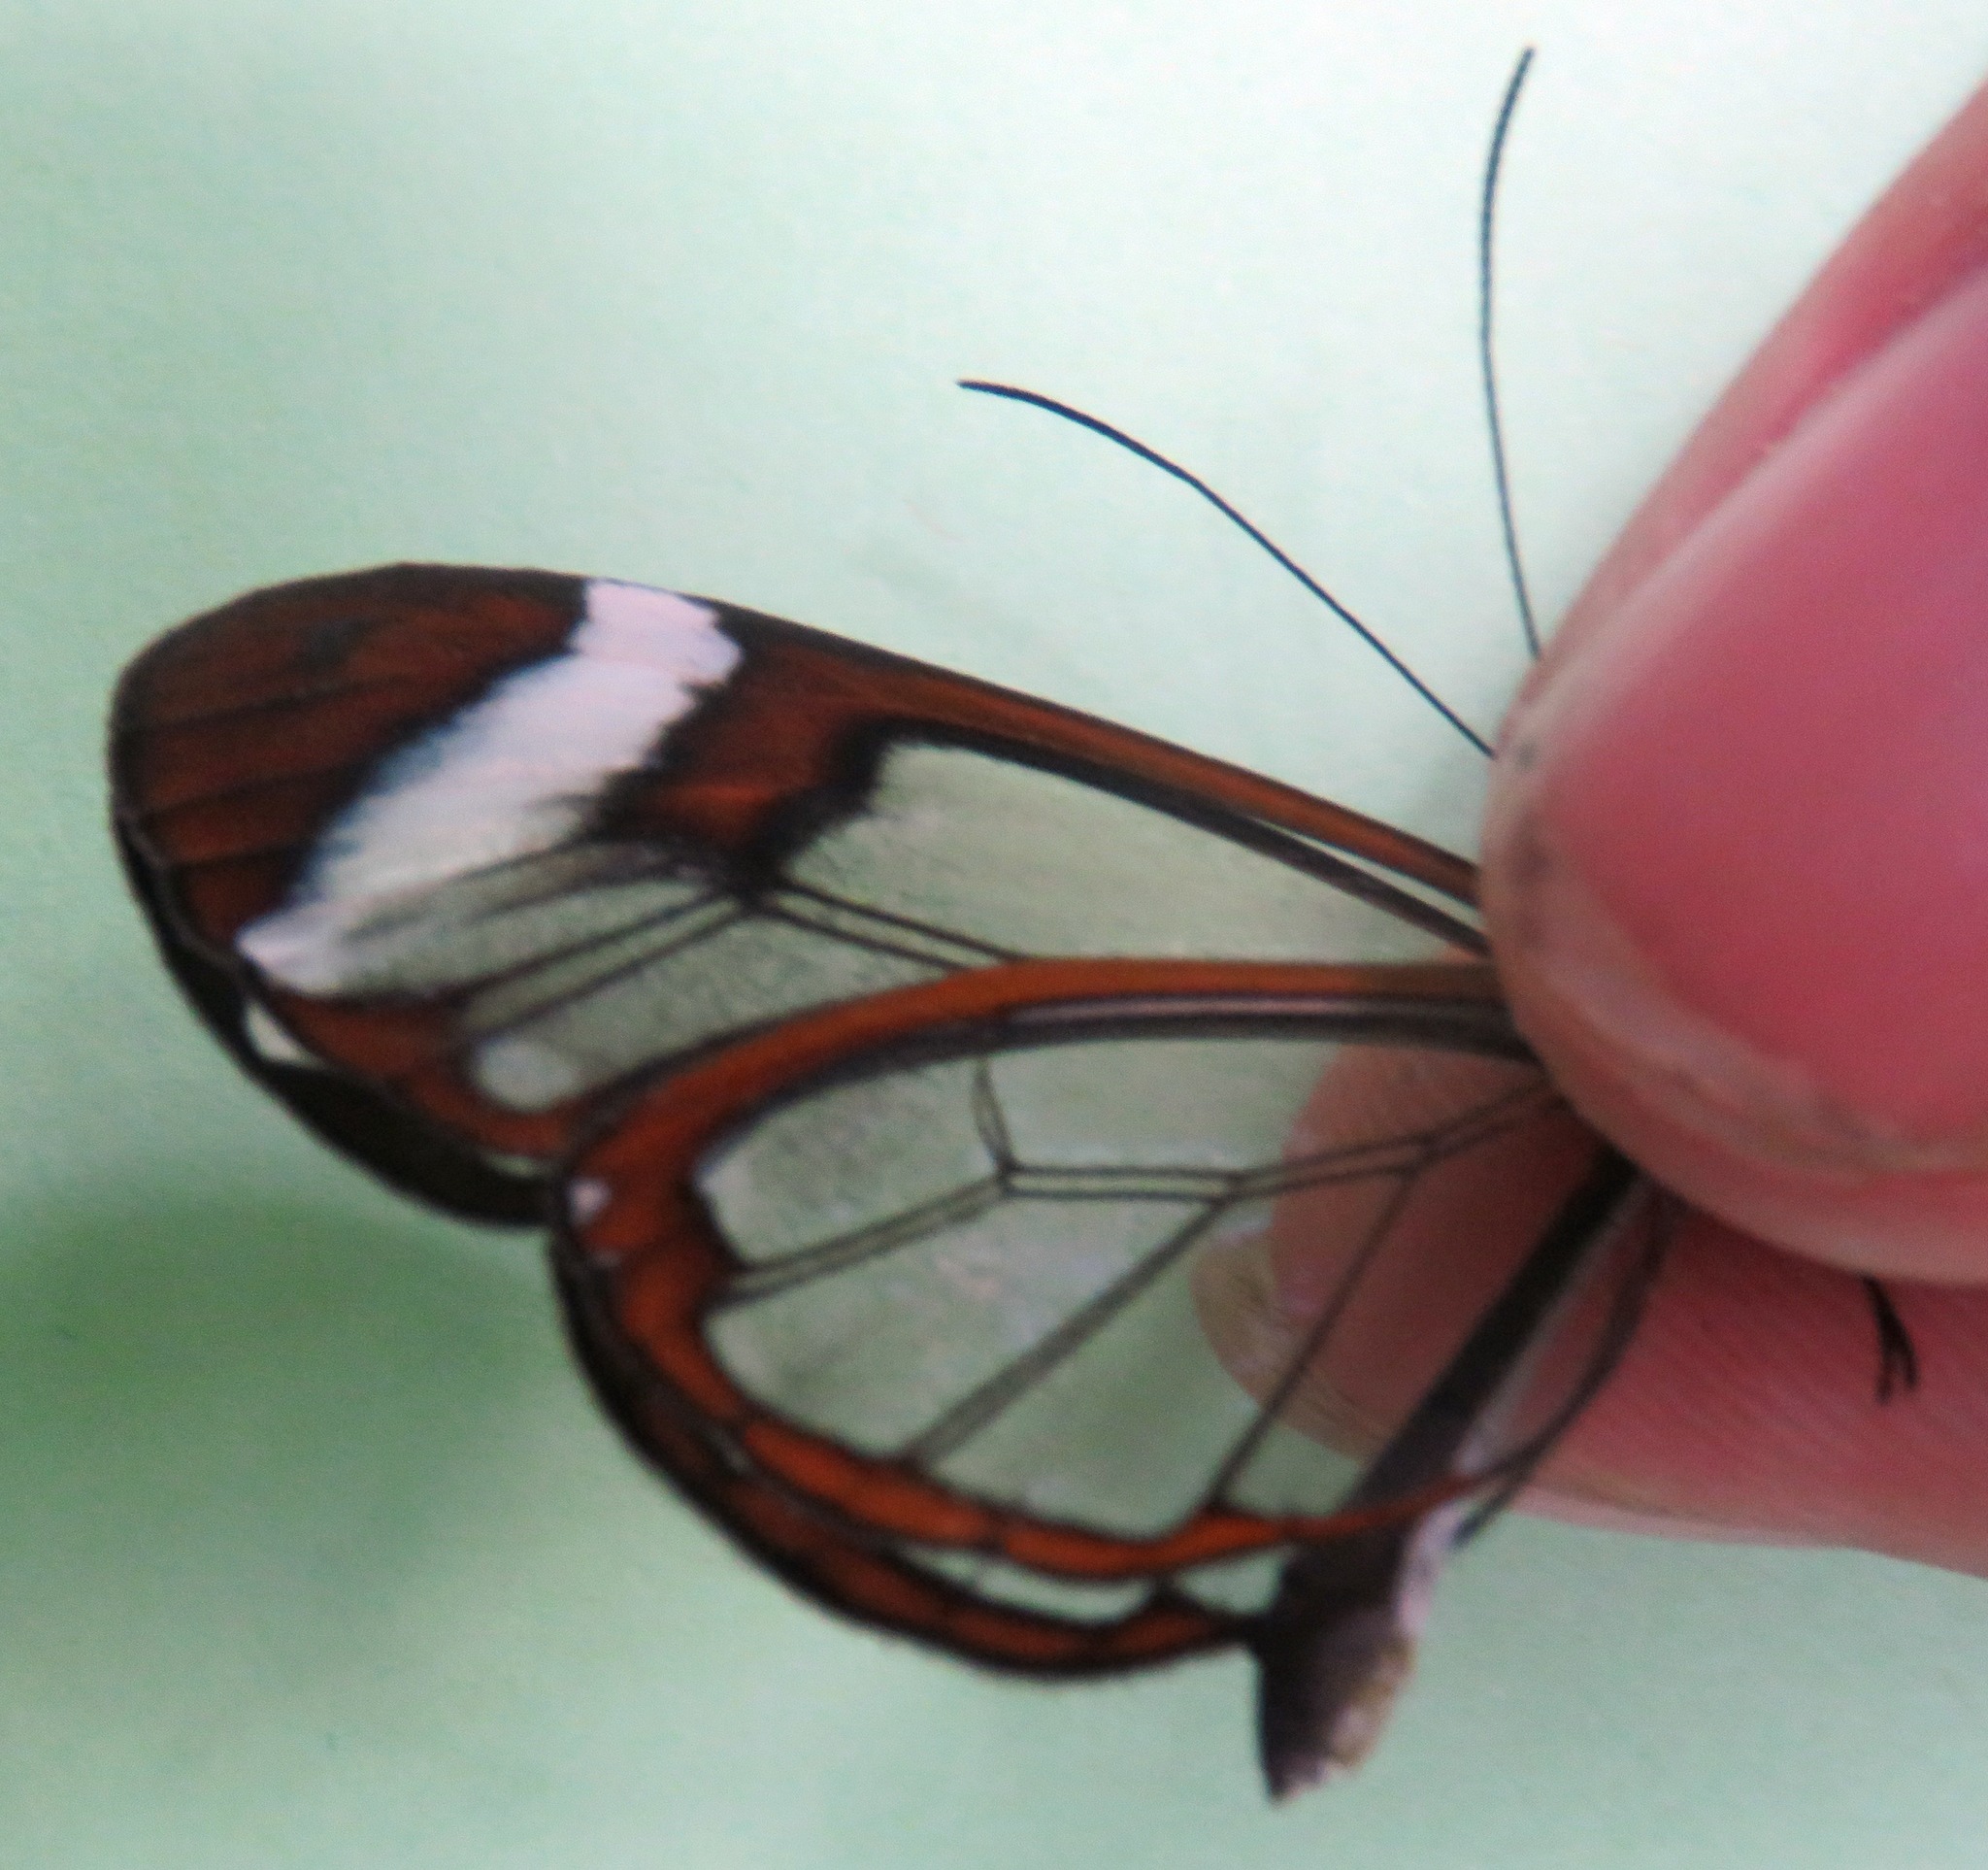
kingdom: Animalia
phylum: Arthropoda
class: Insecta
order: Lepidoptera
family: Nymphalidae
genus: Greta
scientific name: Greta morgane
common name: Thick-tipped greta
